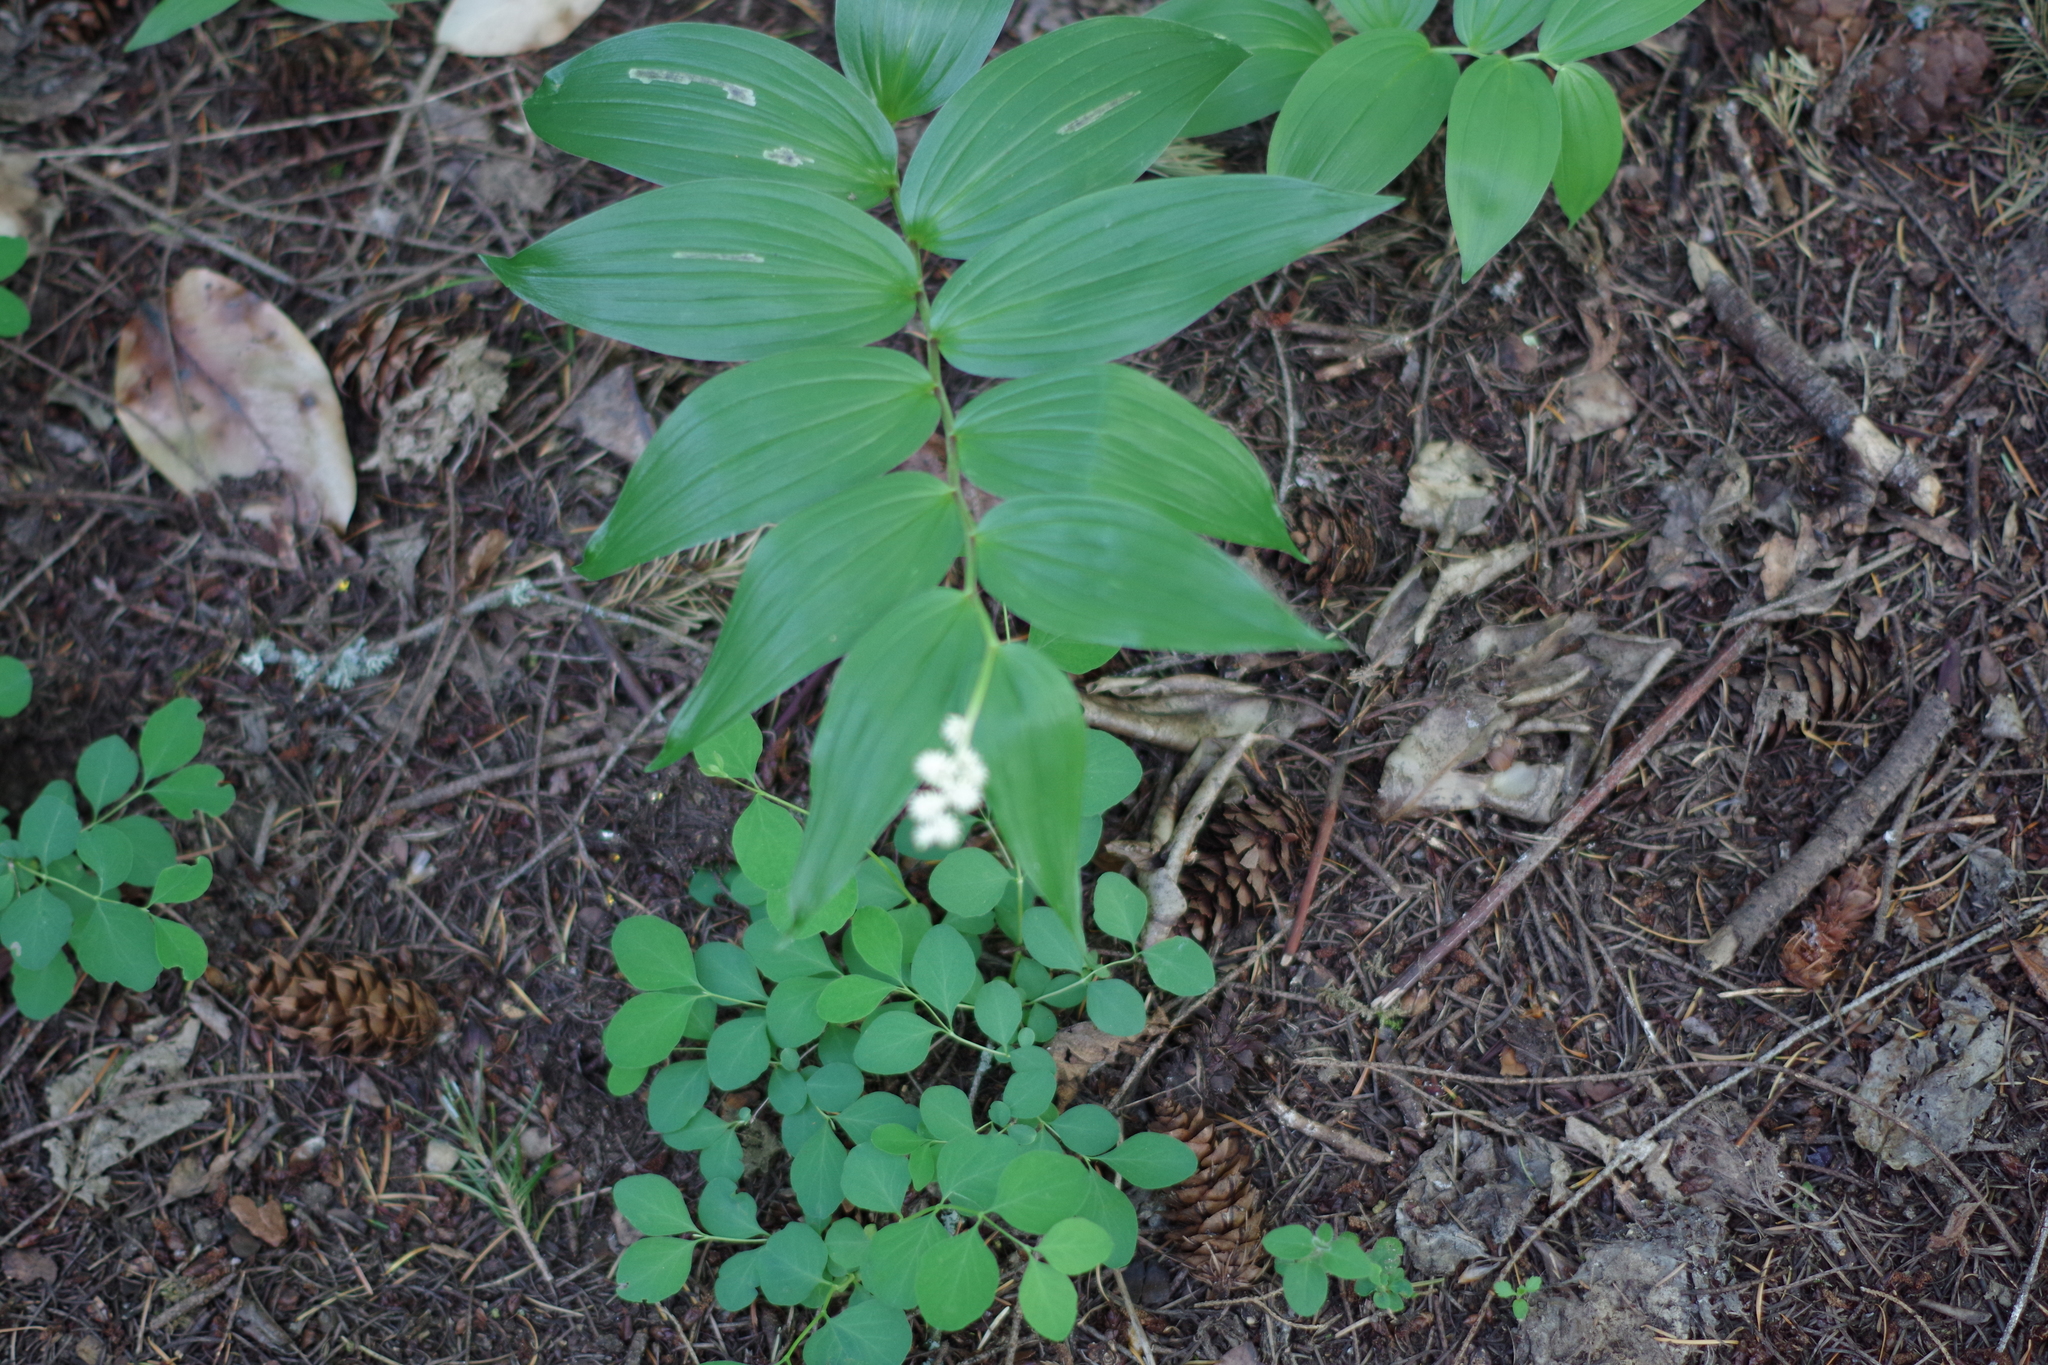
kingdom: Plantae
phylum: Tracheophyta
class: Liliopsida
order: Asparagales
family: Asparagaceae
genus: Maianthemum
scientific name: Maianthemum racemosum
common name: False spikenard
